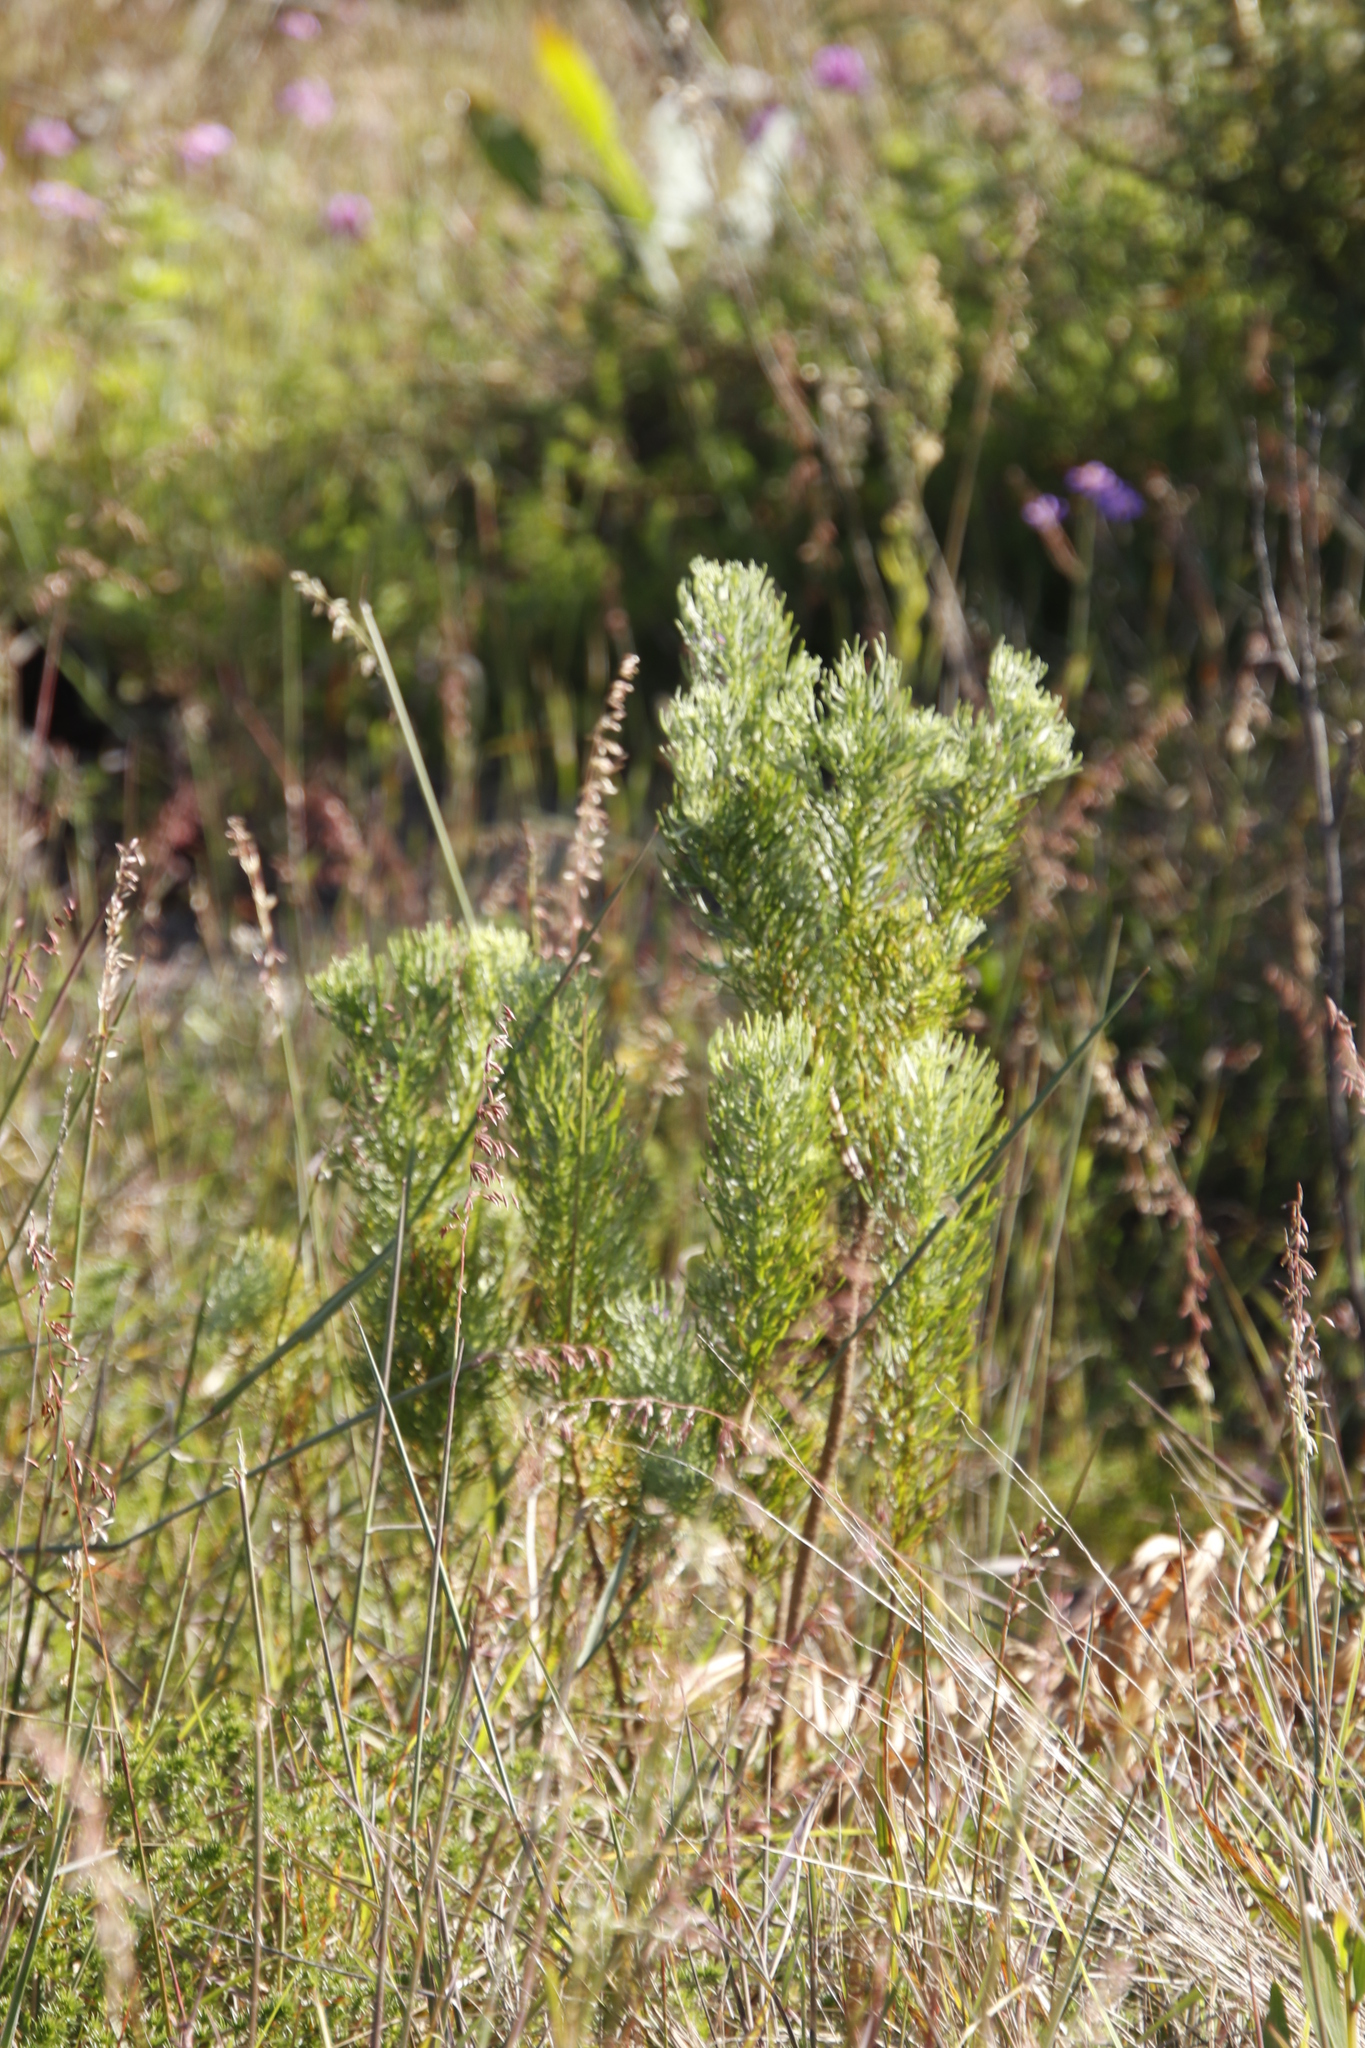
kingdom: Plantae
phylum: Tracheophyta
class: Magnoliopsida
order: Asterales
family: Asteraceae
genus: Athanasia
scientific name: Athanasia crithmifolia
